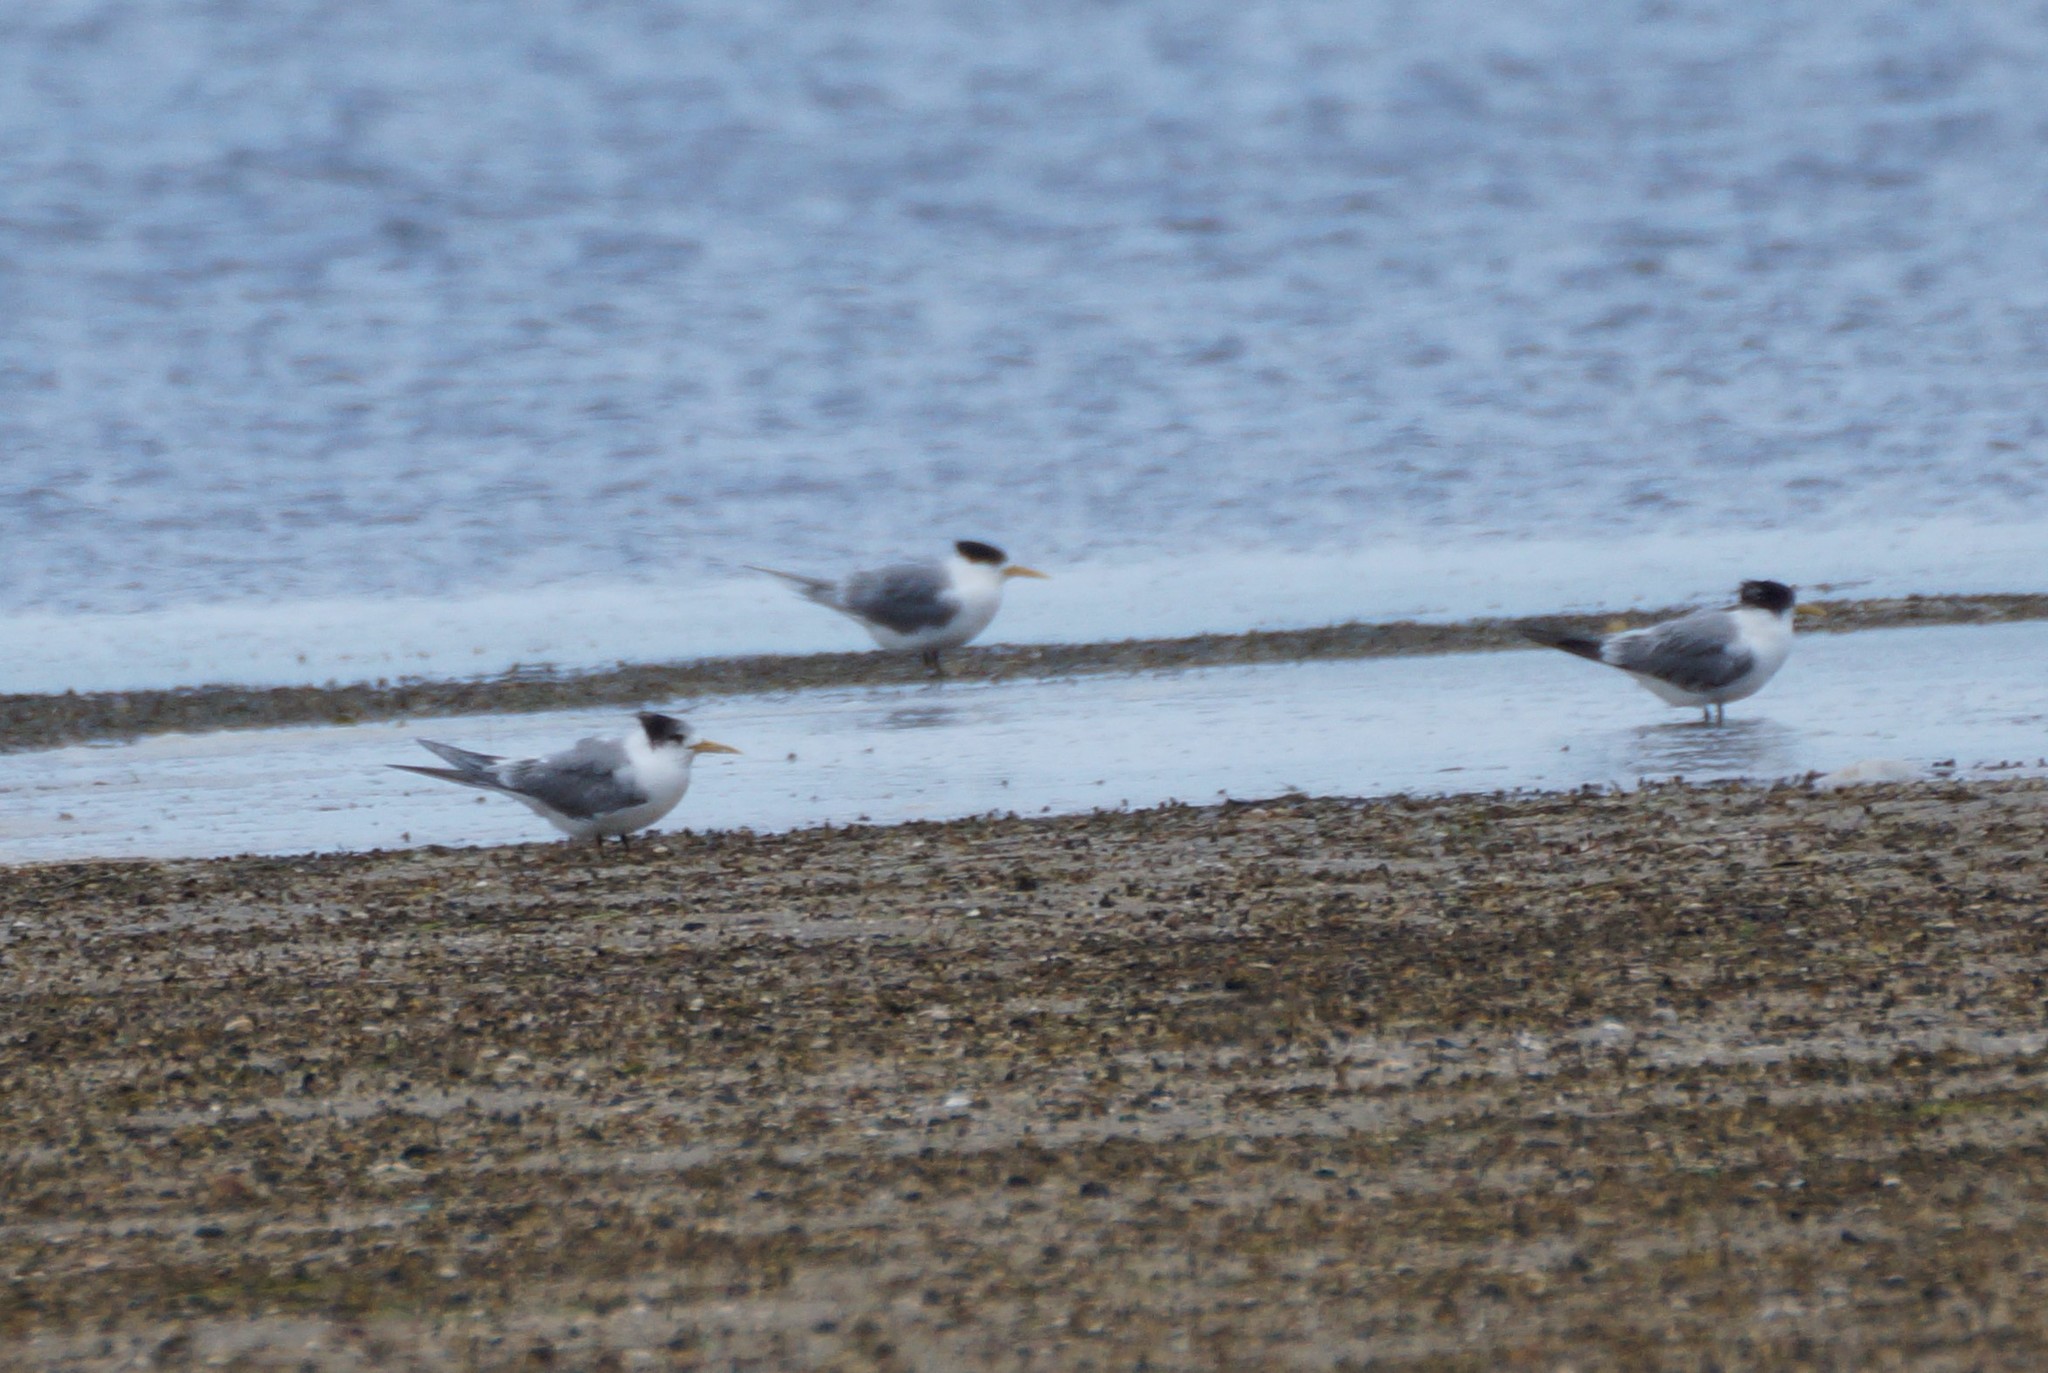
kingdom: Animalia
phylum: Chordata
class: Aves
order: Charadriiformes
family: Laridae
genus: Thalasseus
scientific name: Thalasseus bergii
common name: Greater crested tern
